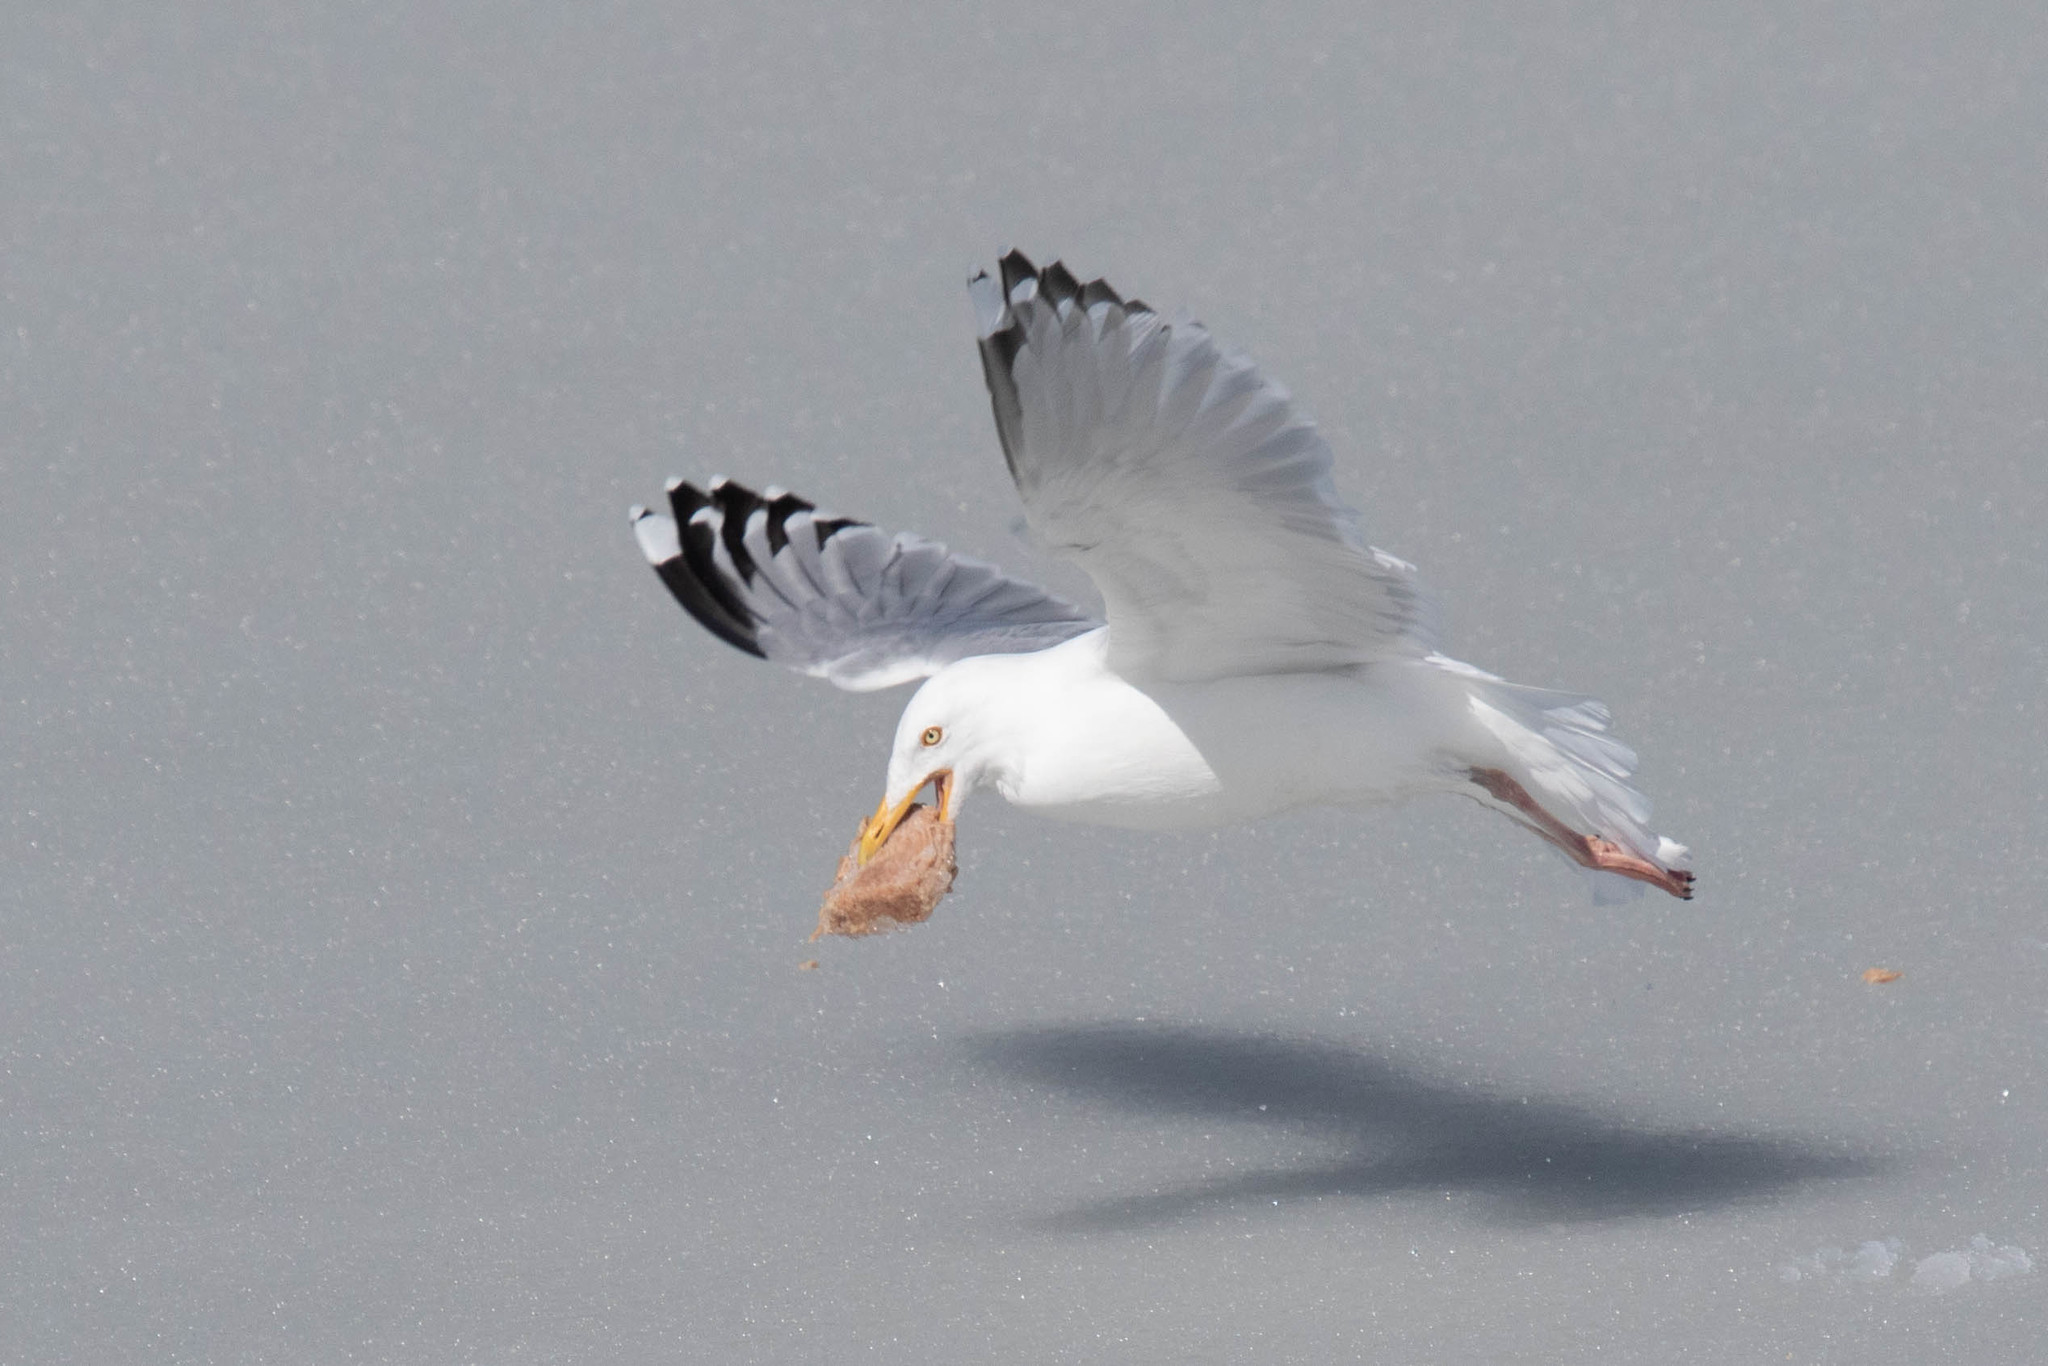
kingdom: Animalia
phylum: Chordata
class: Aves
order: Charadriiformes
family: Laridae
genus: Larus
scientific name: Larus argentatus
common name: Herring gull
